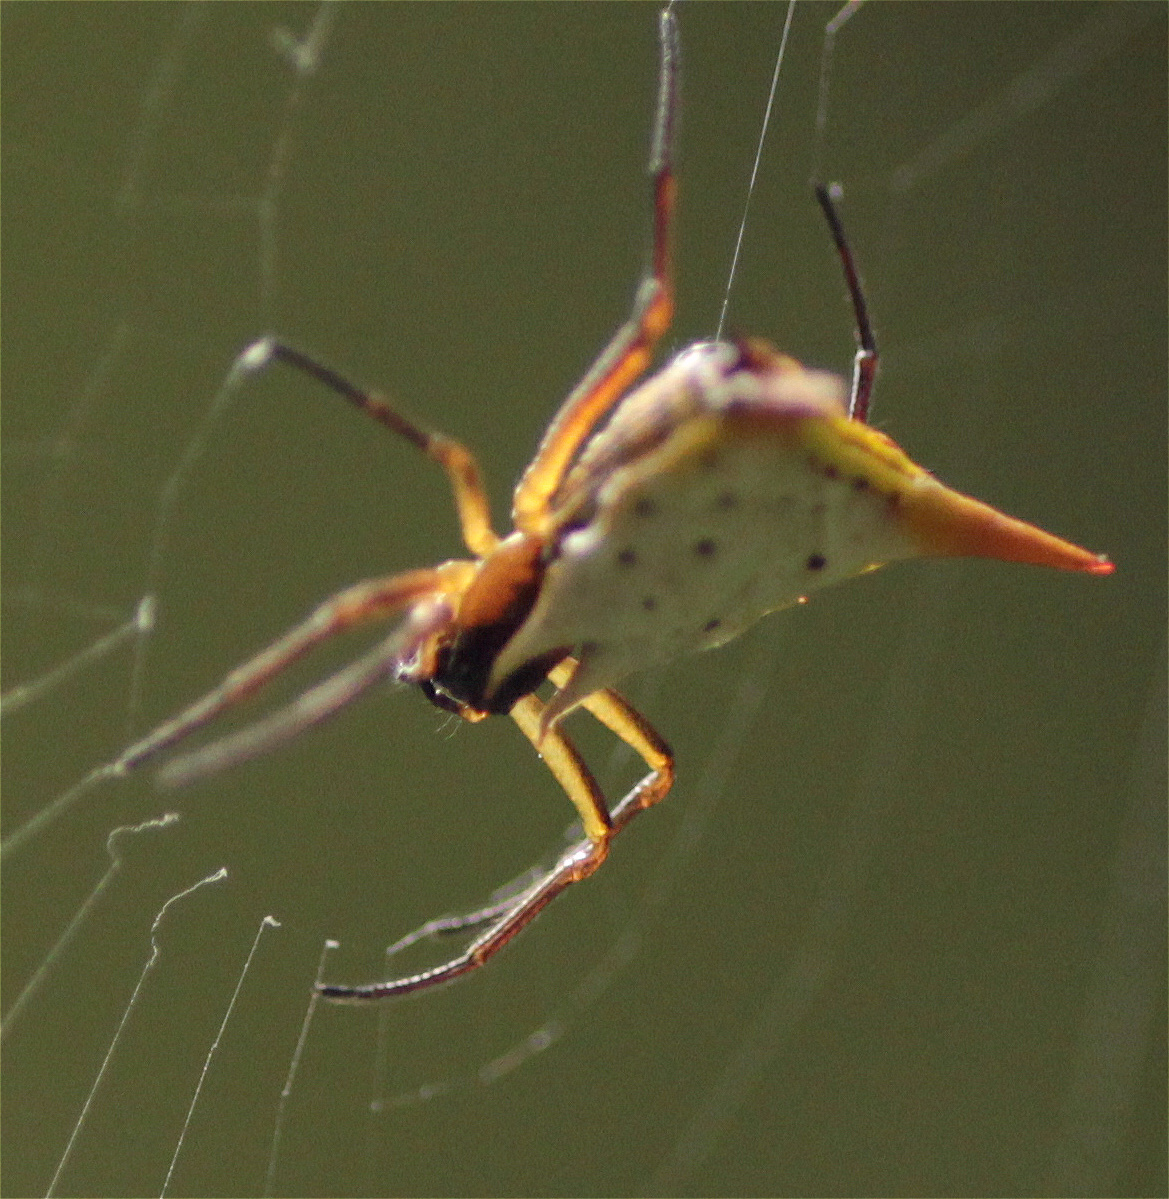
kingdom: Animalia
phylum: Arthropoda
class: Arachnida
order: Araneae
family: Araneidae
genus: Micrathena
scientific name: Micrathena bicolor
